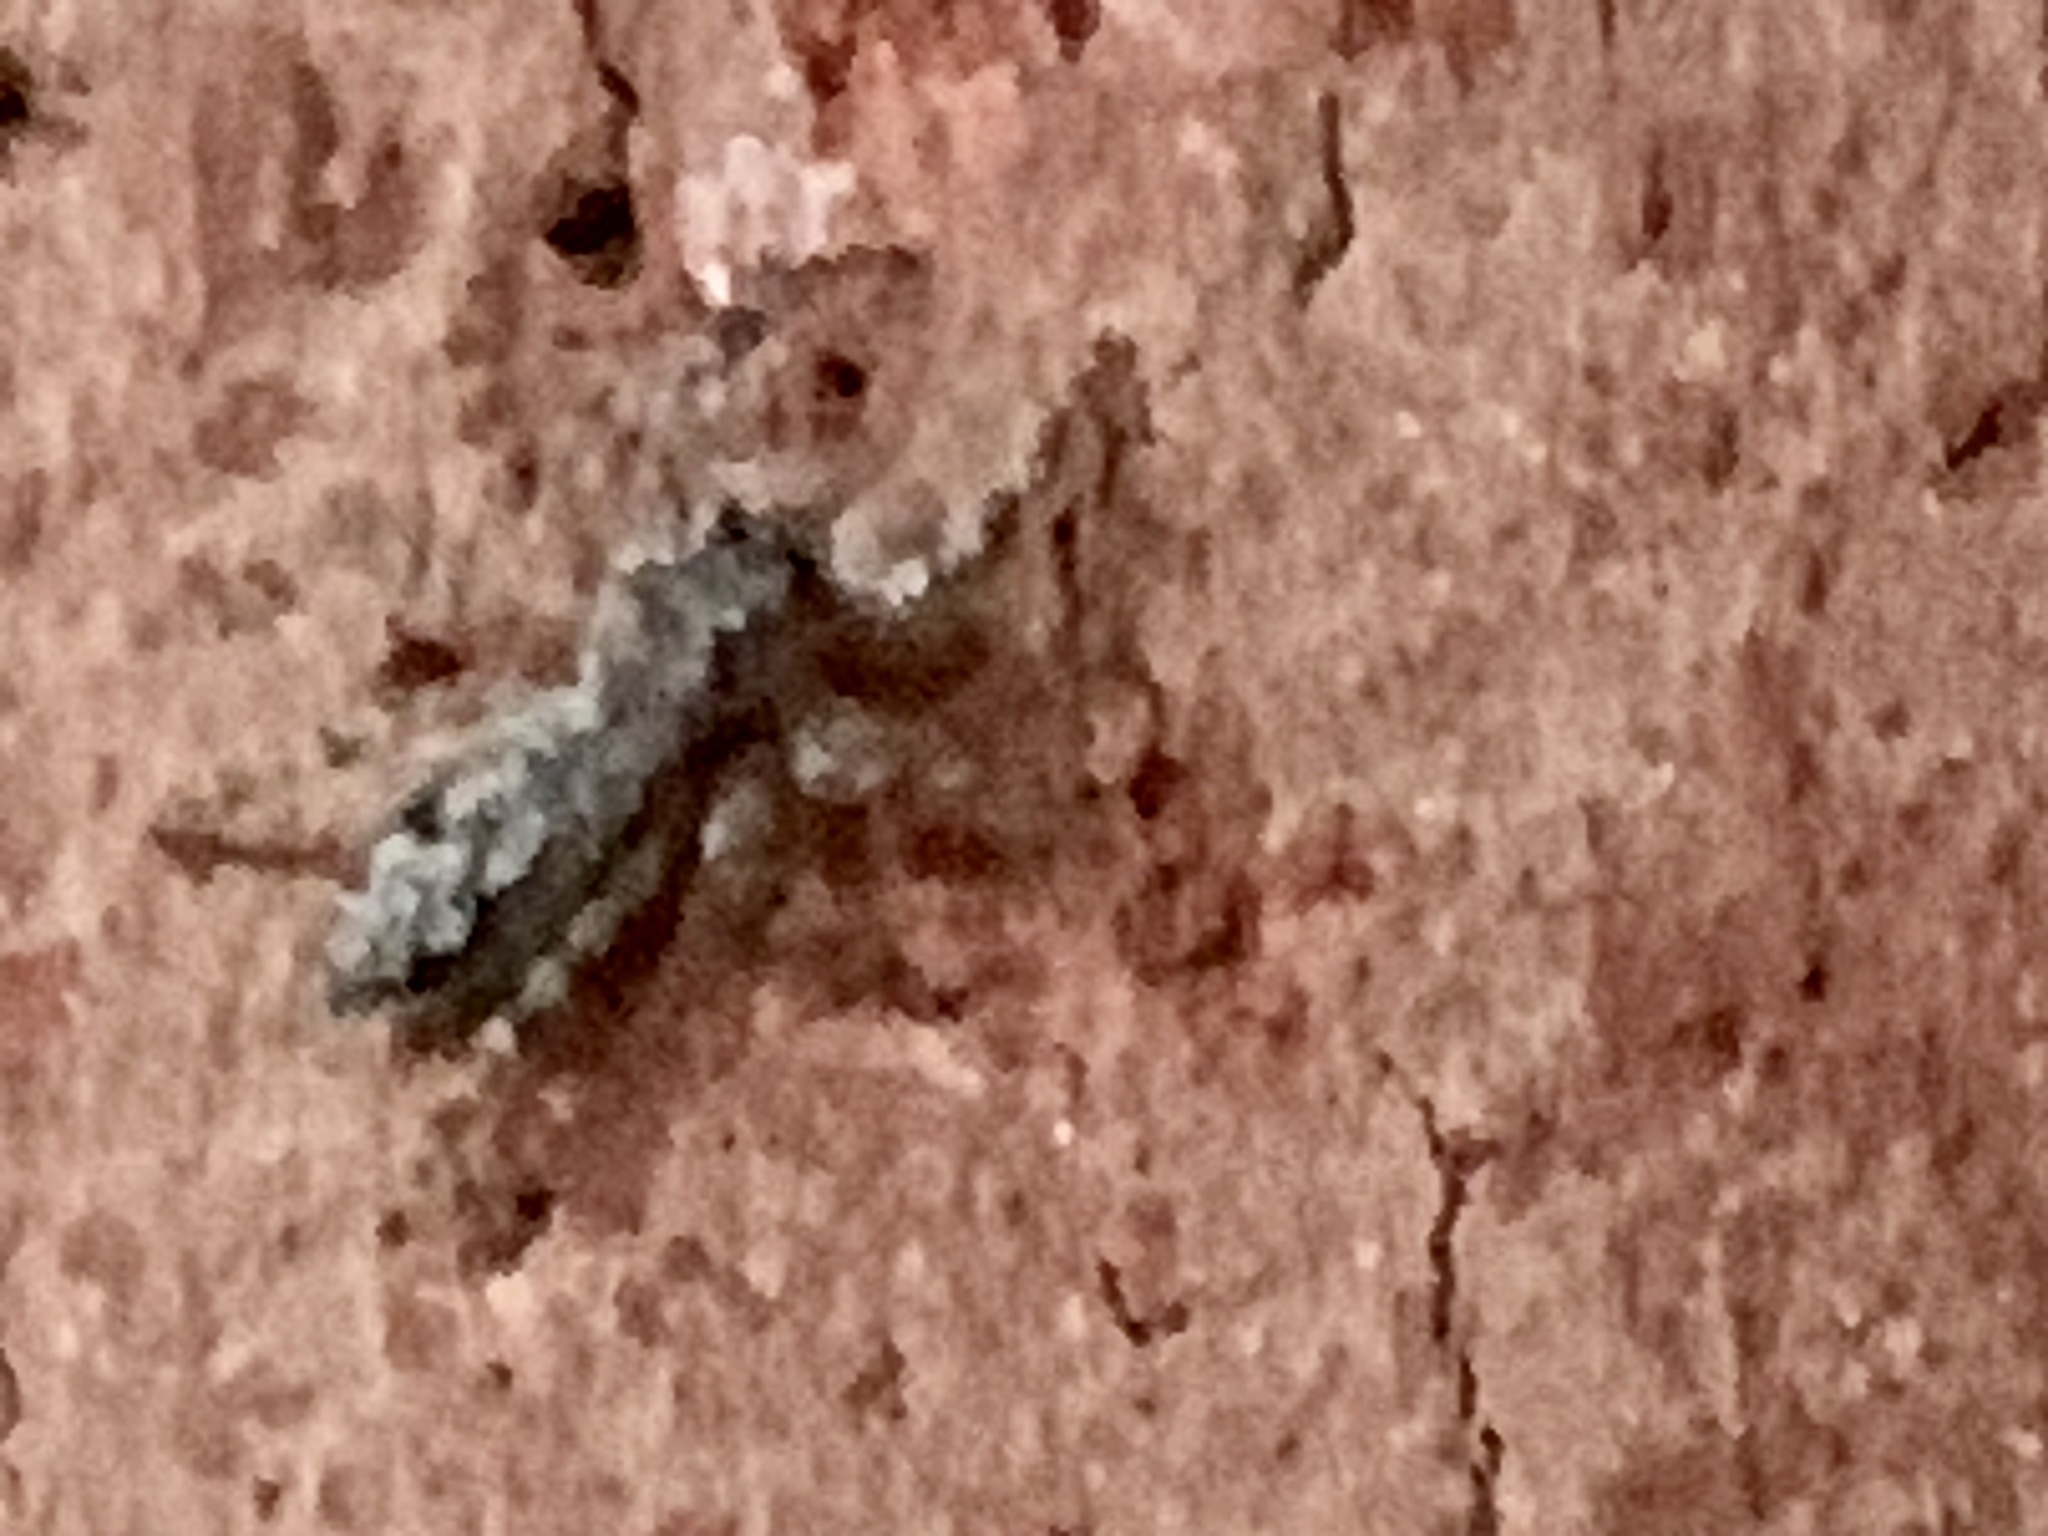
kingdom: Animalia
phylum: Arthropoda
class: Arachnida
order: Araneae
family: Salticidae
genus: Platycryptus
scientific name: Platycryptus undatus
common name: Tan jumping spider
